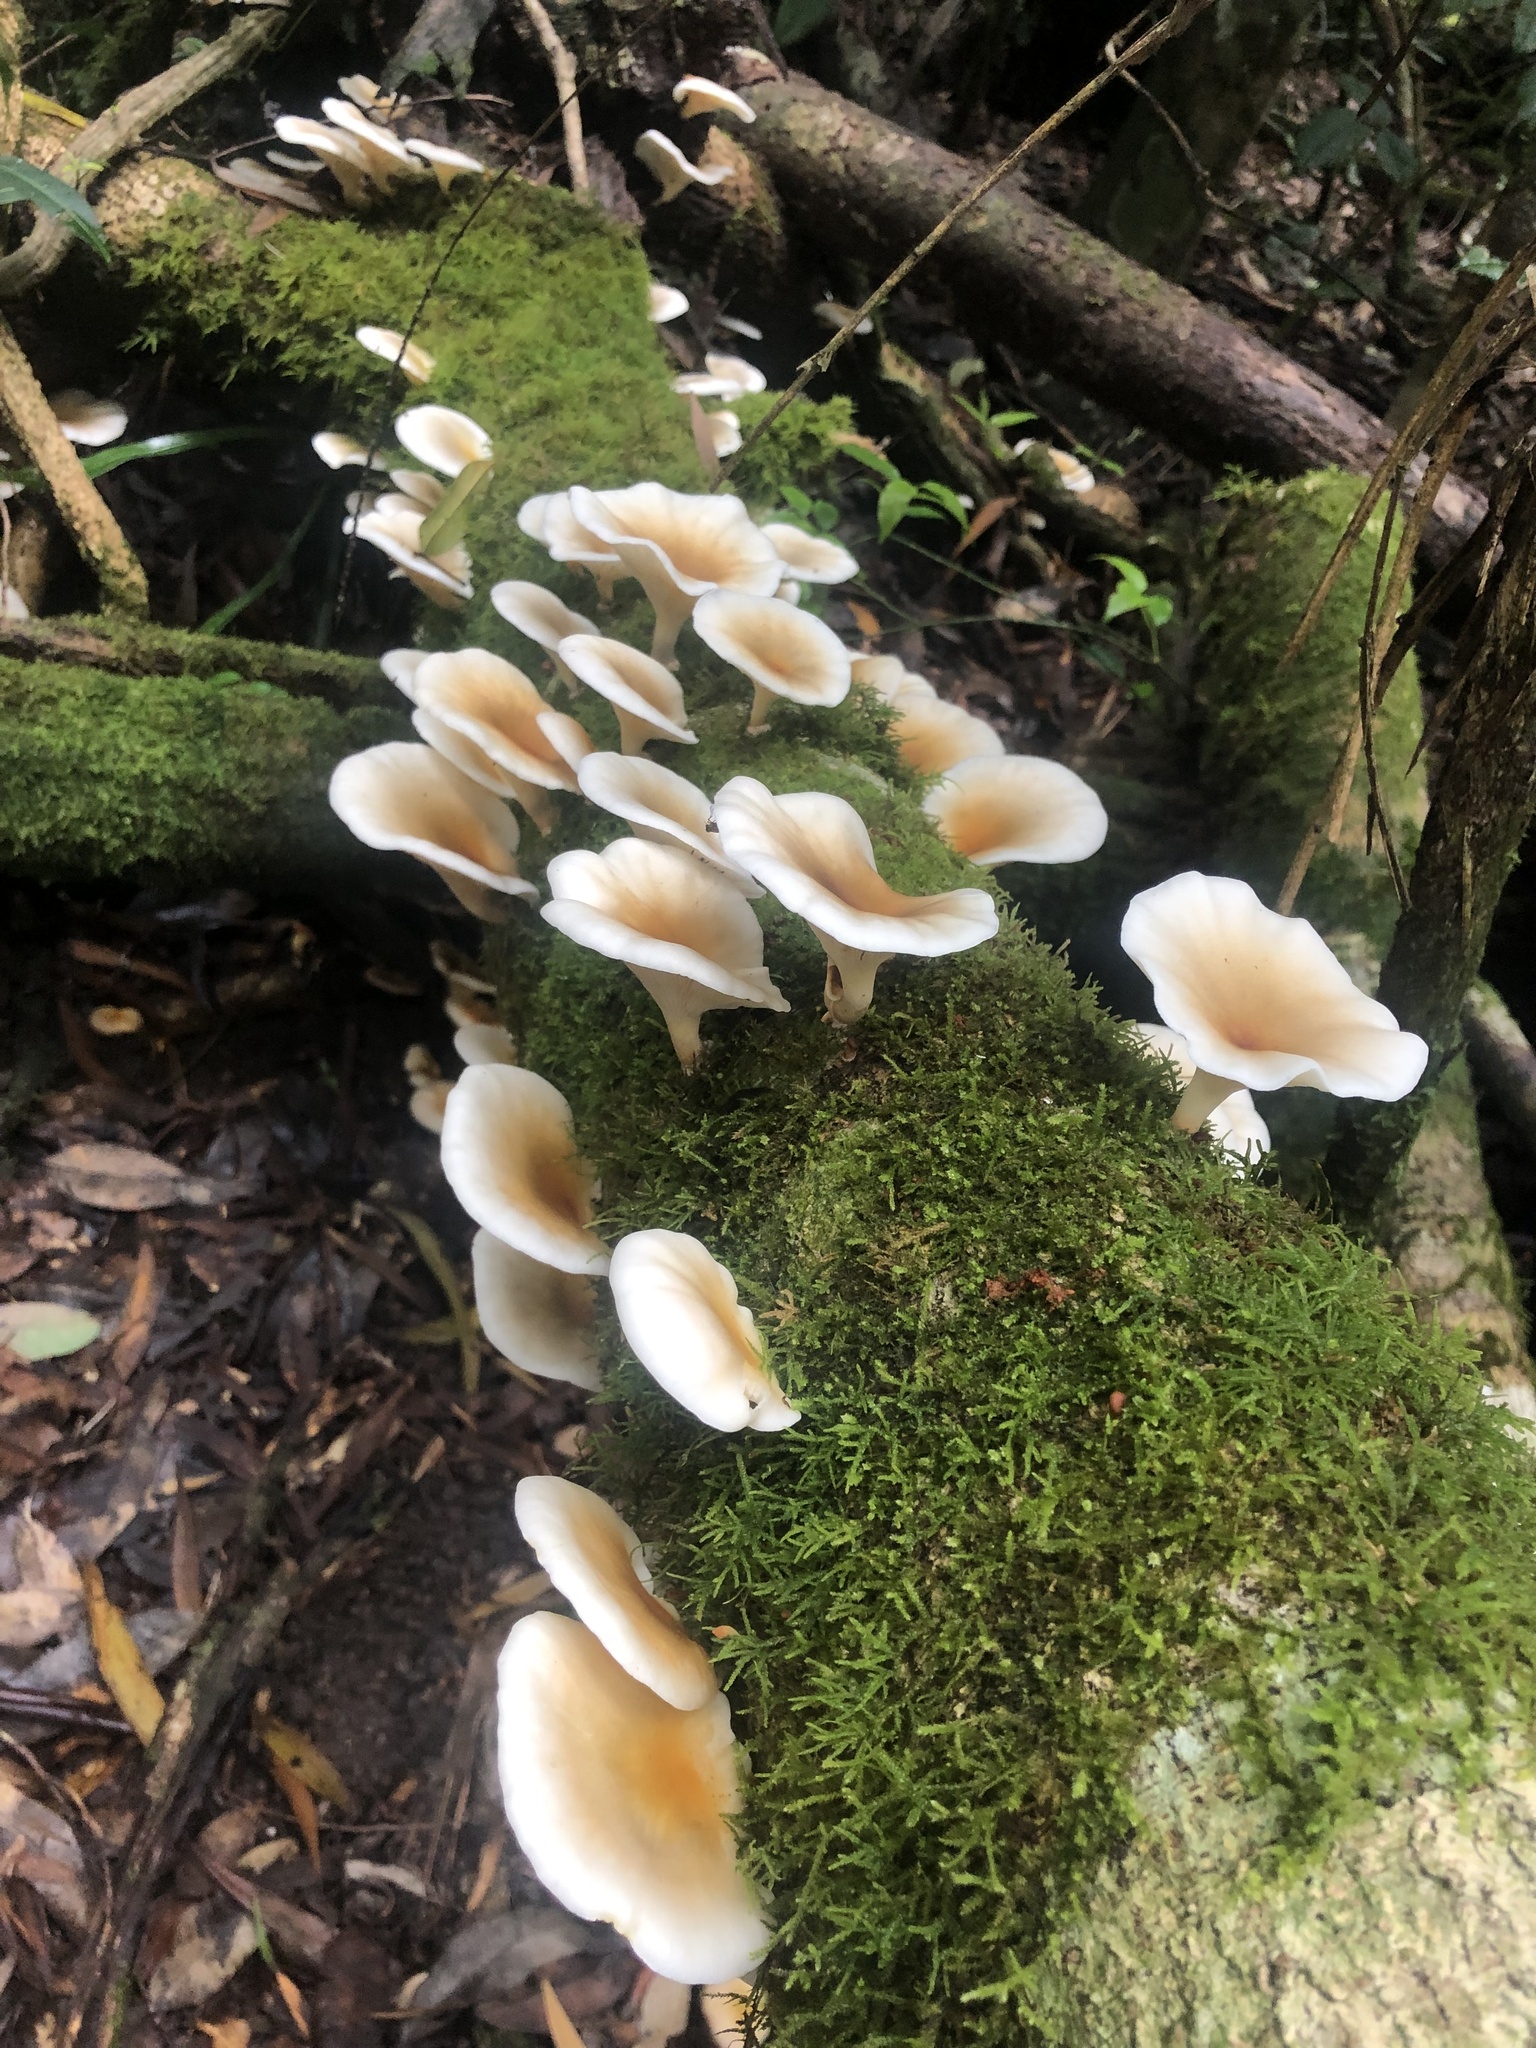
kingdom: Fungi
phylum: Basidiomycota
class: Agaricomycetes
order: Agaricales
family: Omphalotaceae
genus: Omphalotus
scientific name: Omphalotus nidiformis
